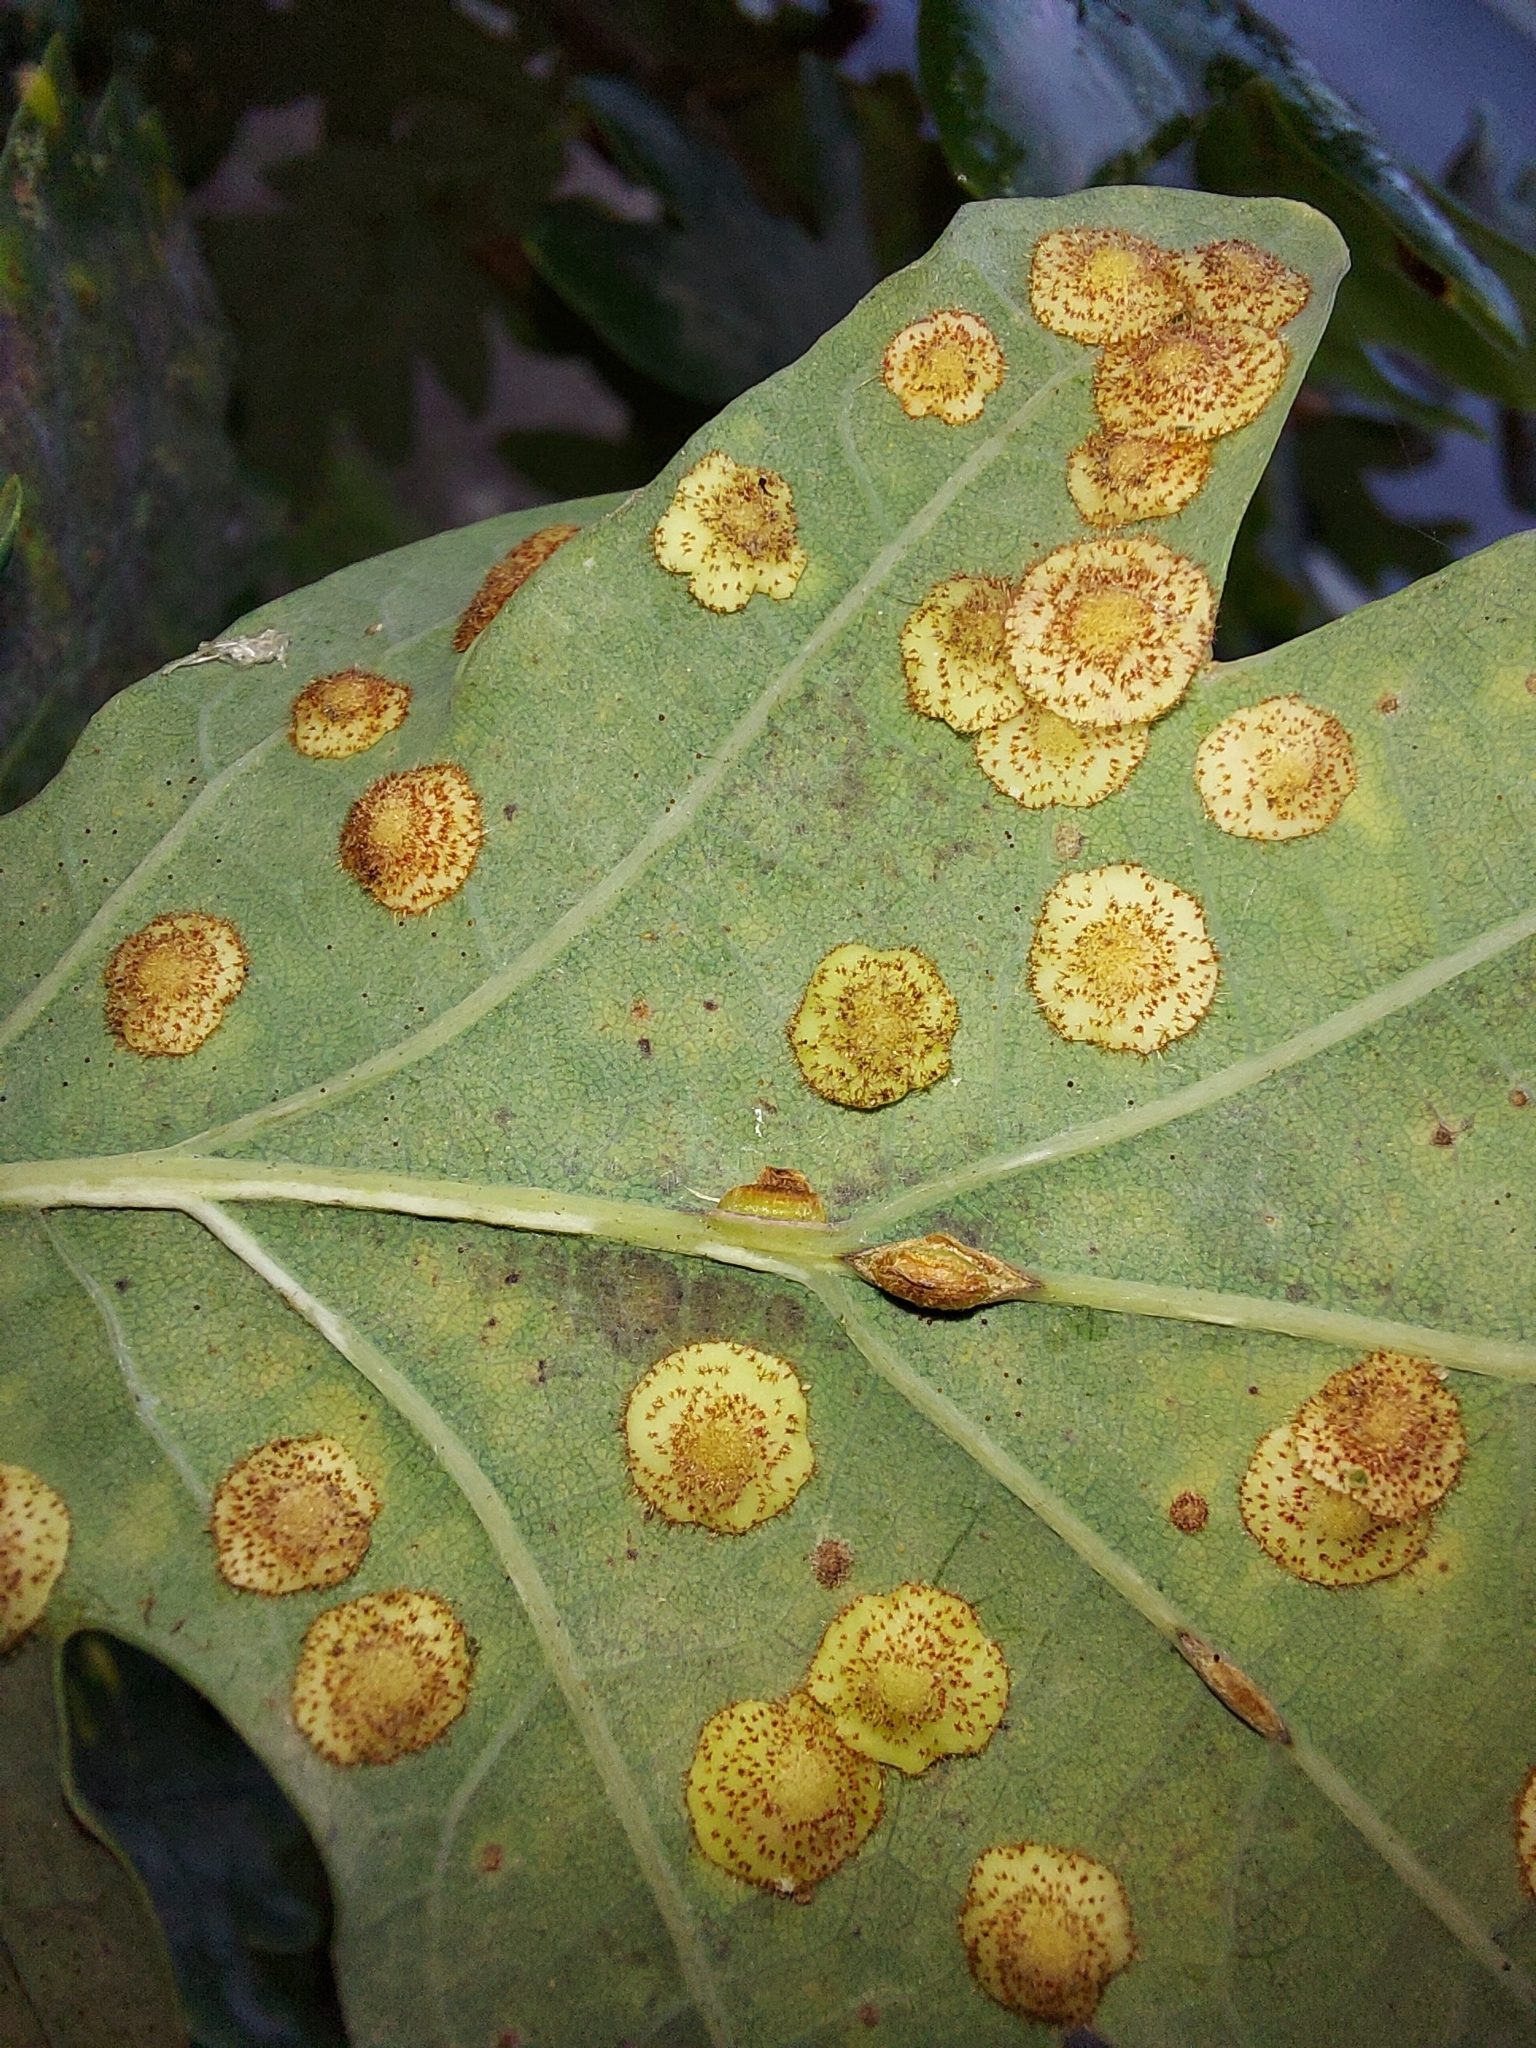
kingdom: Animalia
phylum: Arthropoda
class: Insecta
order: Hymenoptera
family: Cynipidae
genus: Neuroterus
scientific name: Neuroterus anthracinus
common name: Oyster gall
